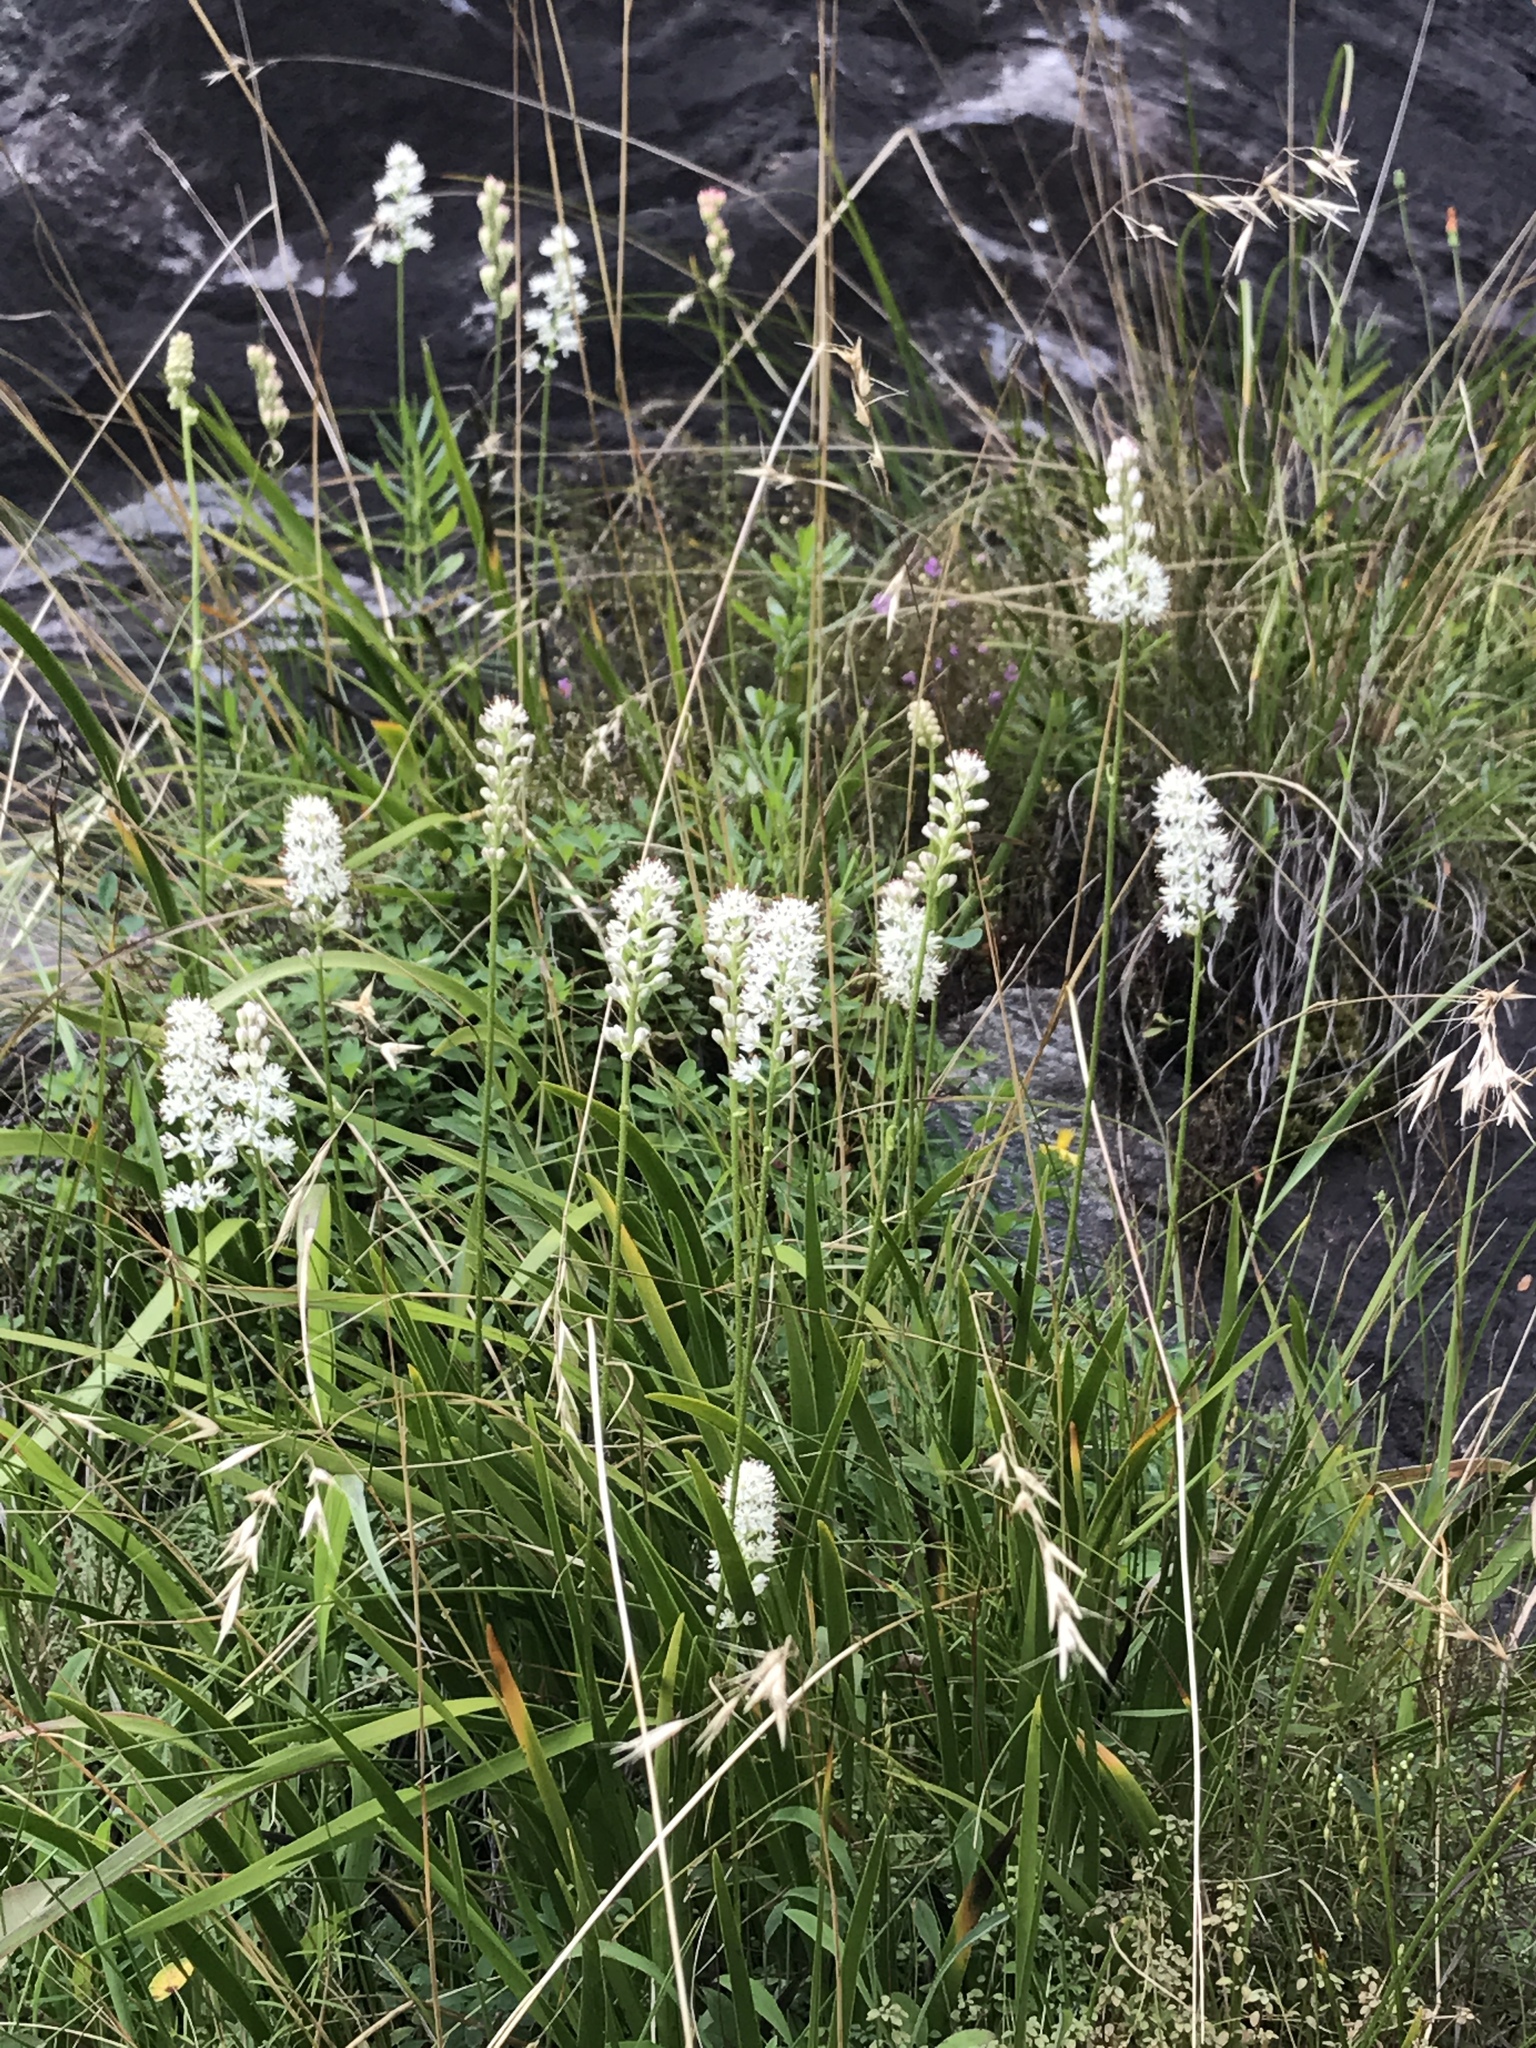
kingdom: Plantae
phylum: Tracheophyta
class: Liliopsida
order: Alismatales
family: Tofieldiaceae
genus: Triantha
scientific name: Triantha glutinosa
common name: Glutinous tofieldia
